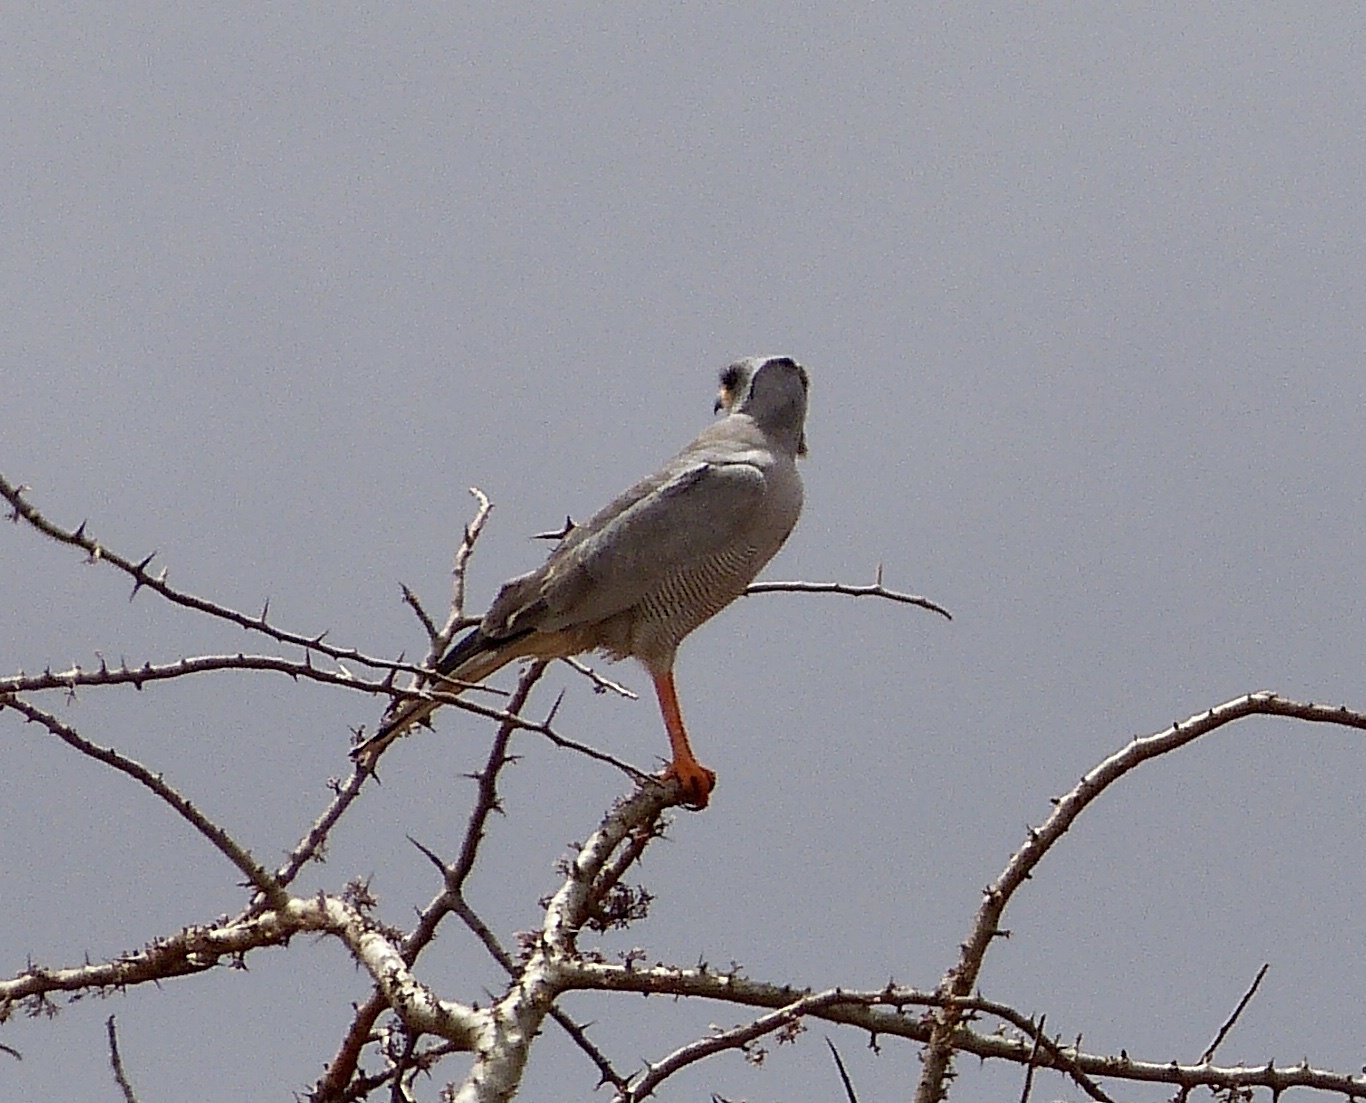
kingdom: Animalia
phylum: Chordata
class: Aves
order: Accipitriformes
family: Accipitridae
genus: Melierax
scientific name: Melierax poliopterus
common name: Eastern chanting goshawk
